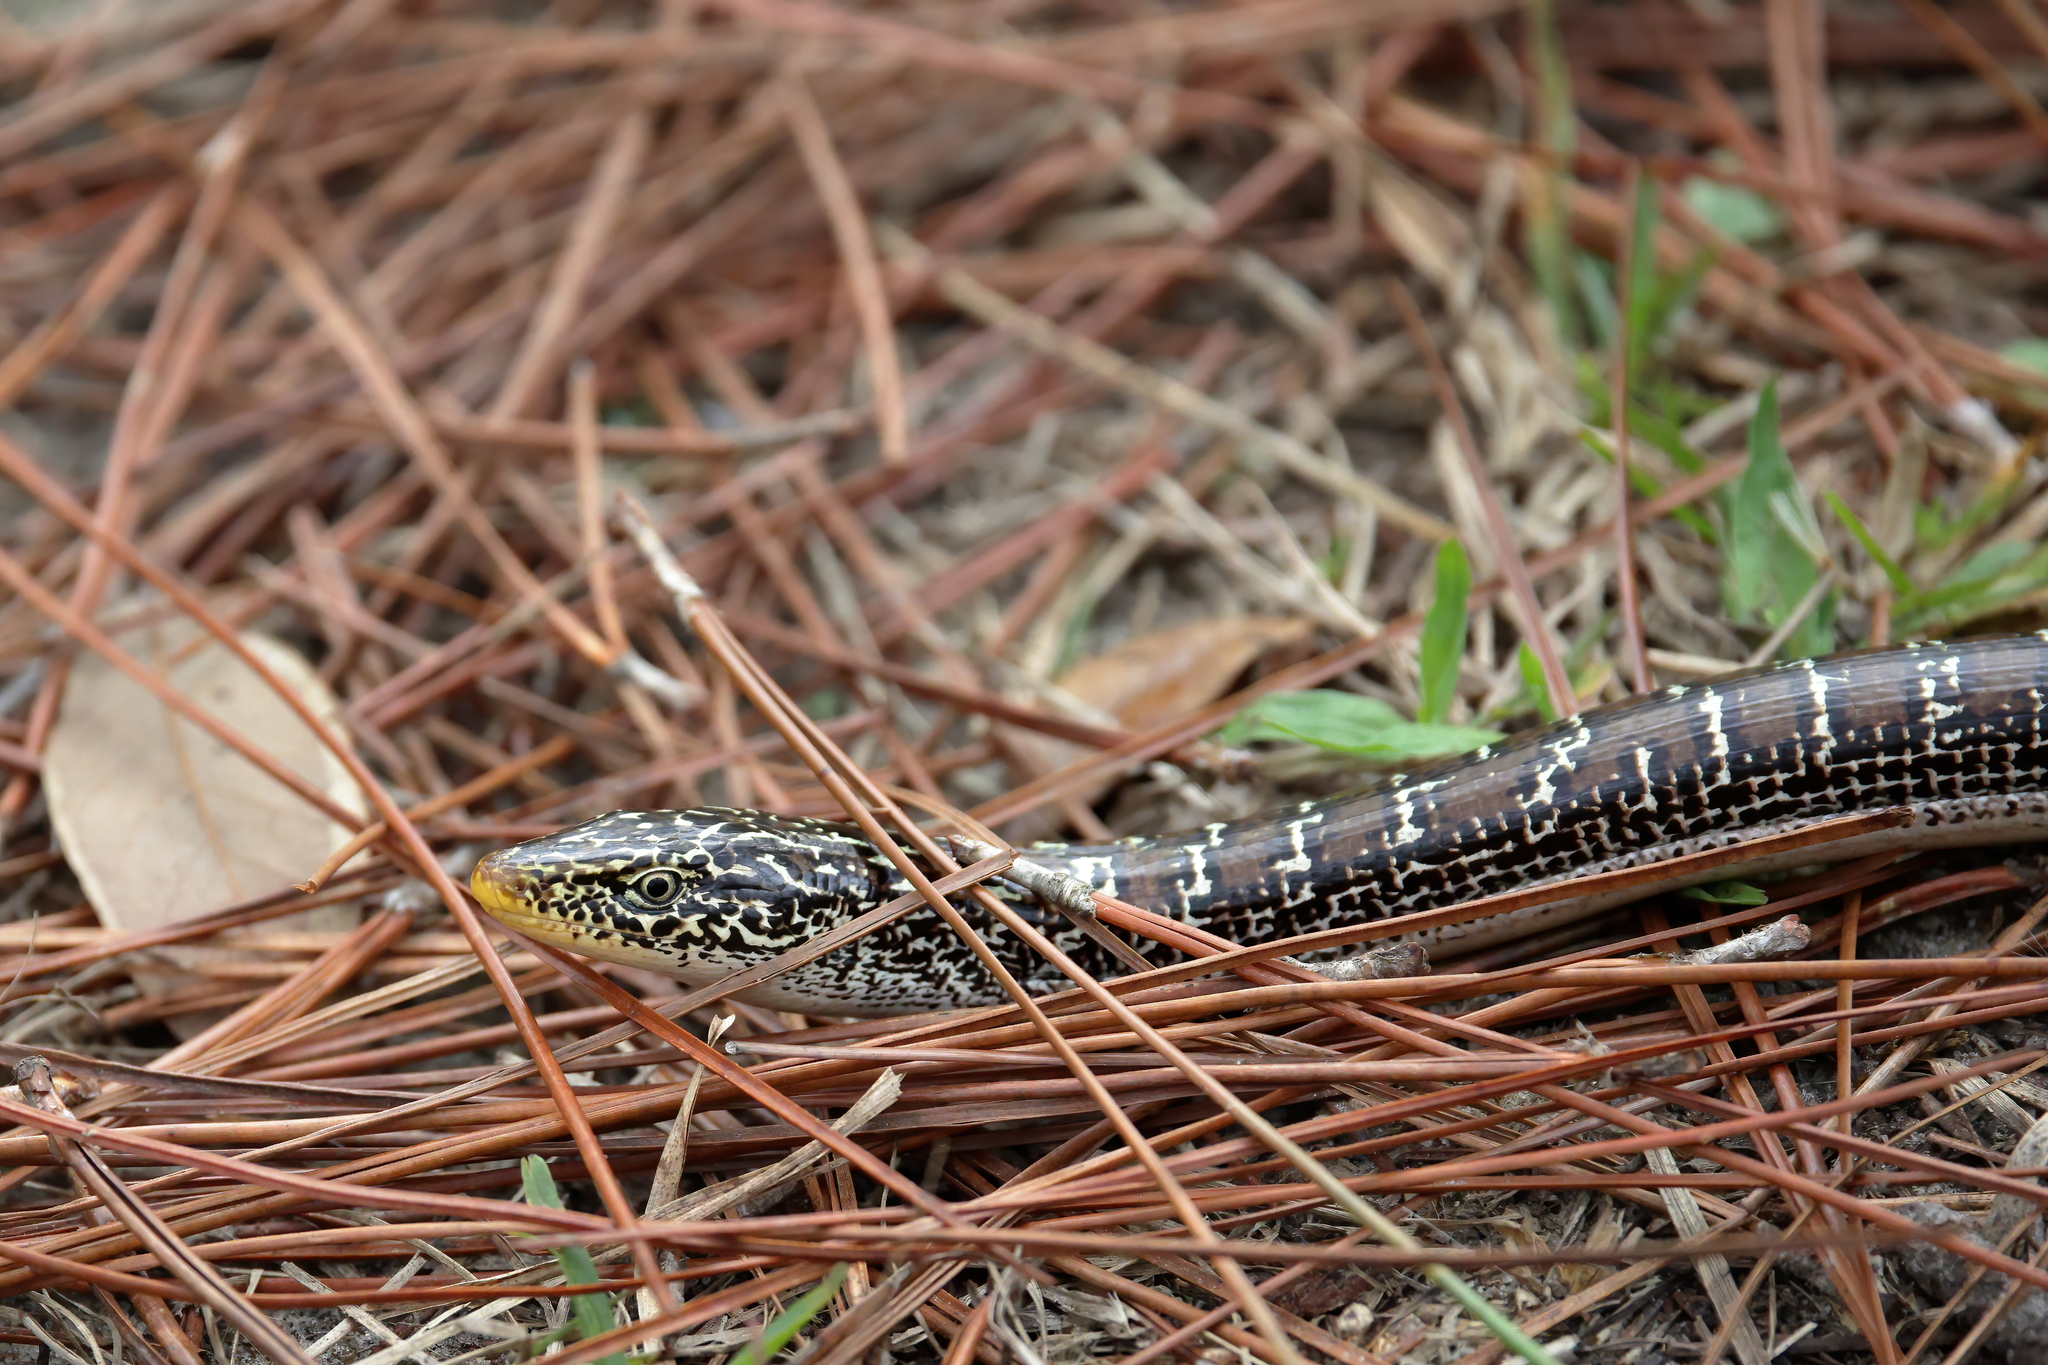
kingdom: Animalia
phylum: Chordata
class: Squamata
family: Anguidae
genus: Ophisaurus
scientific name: Ophisaurus attenuatus
